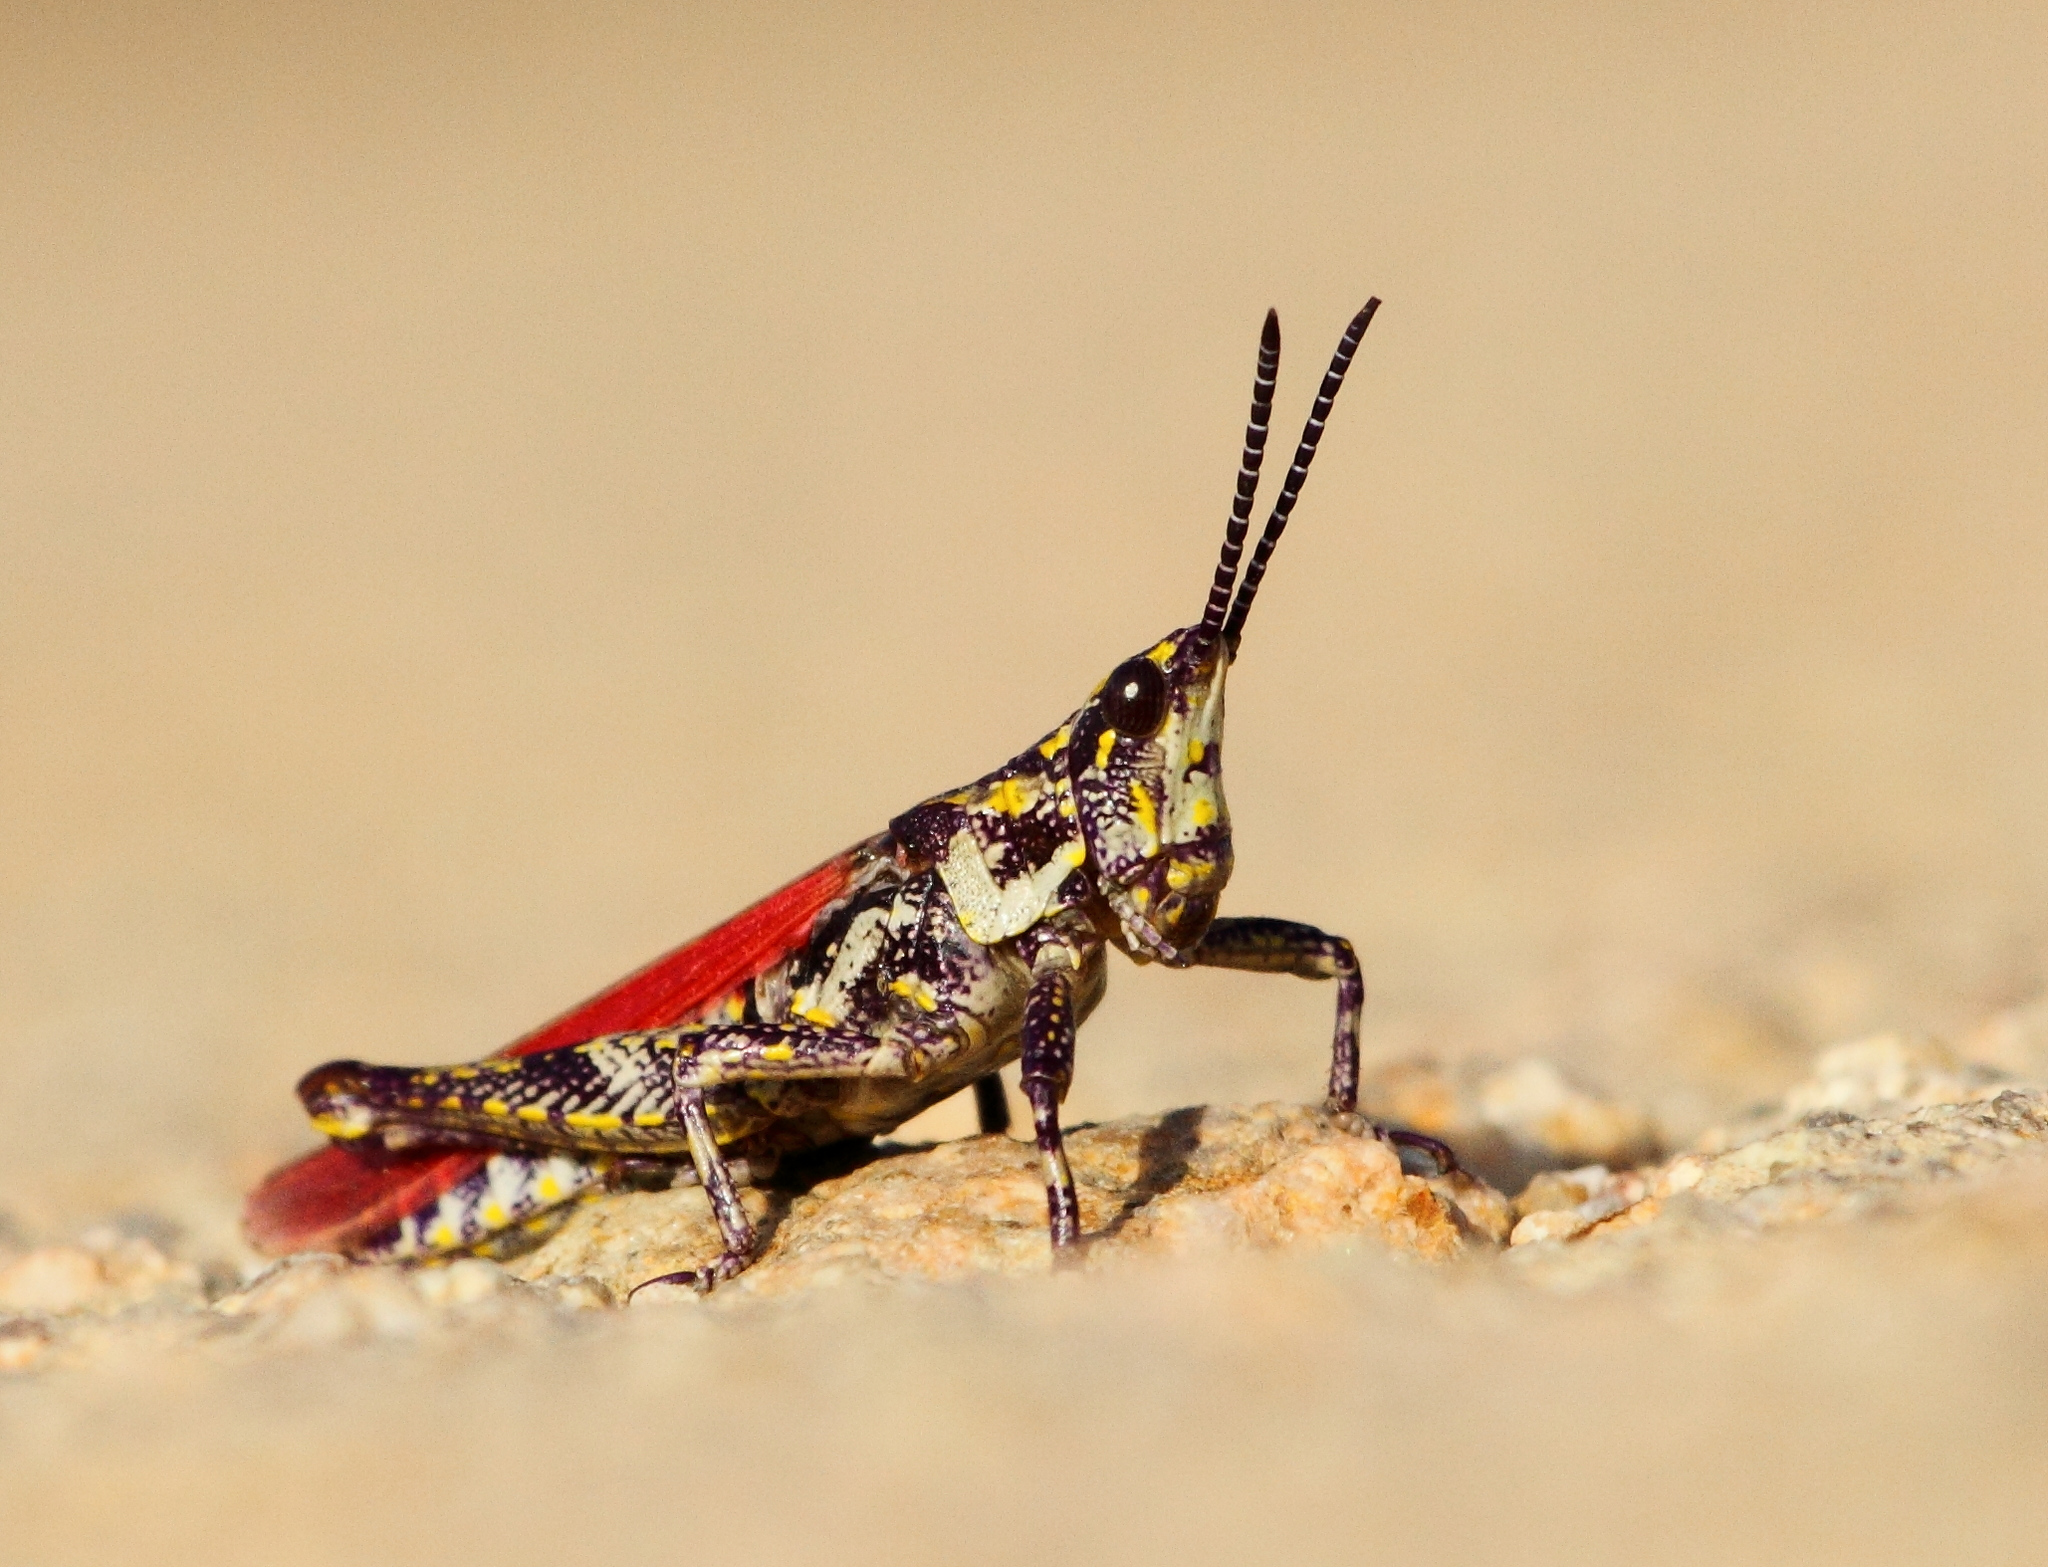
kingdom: Animalia
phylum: Arthropoda
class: Insecta
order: Orthoptera
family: Pyrgomorphidae
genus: Ochrophlebia
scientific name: Ochrophlebia cafra
